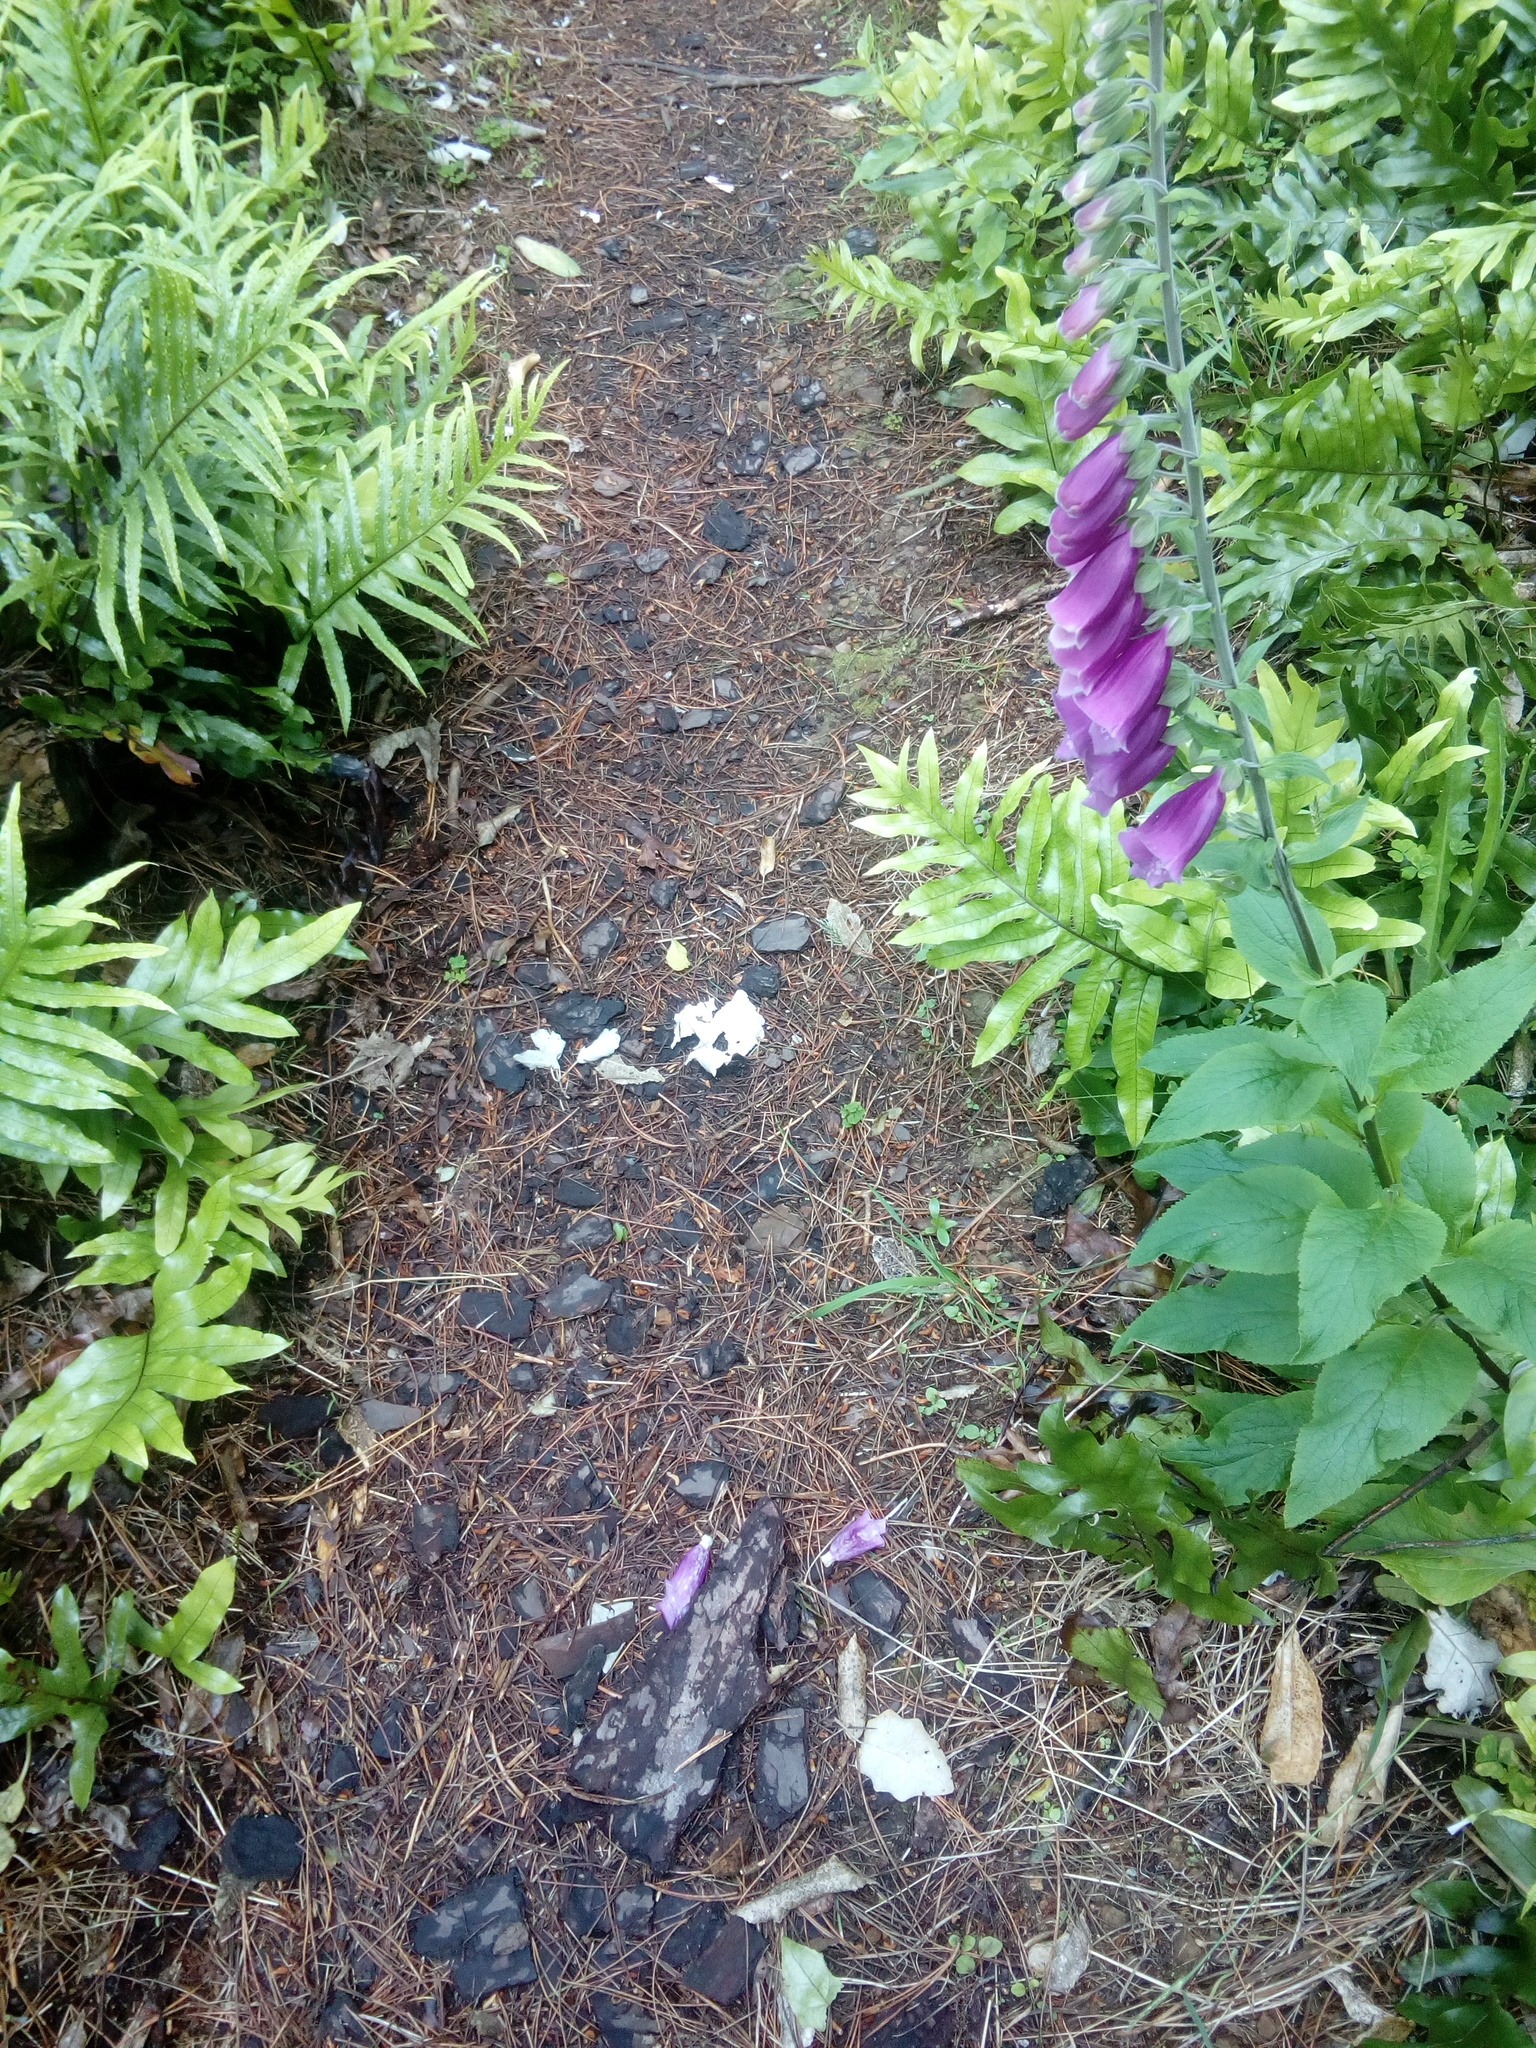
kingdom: Plantae
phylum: Tracheophyta
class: Magnoliopsida
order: Lamiales
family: Plantaginaceae
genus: Digitalis
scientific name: Digitalis purpurea
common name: Foxglove
